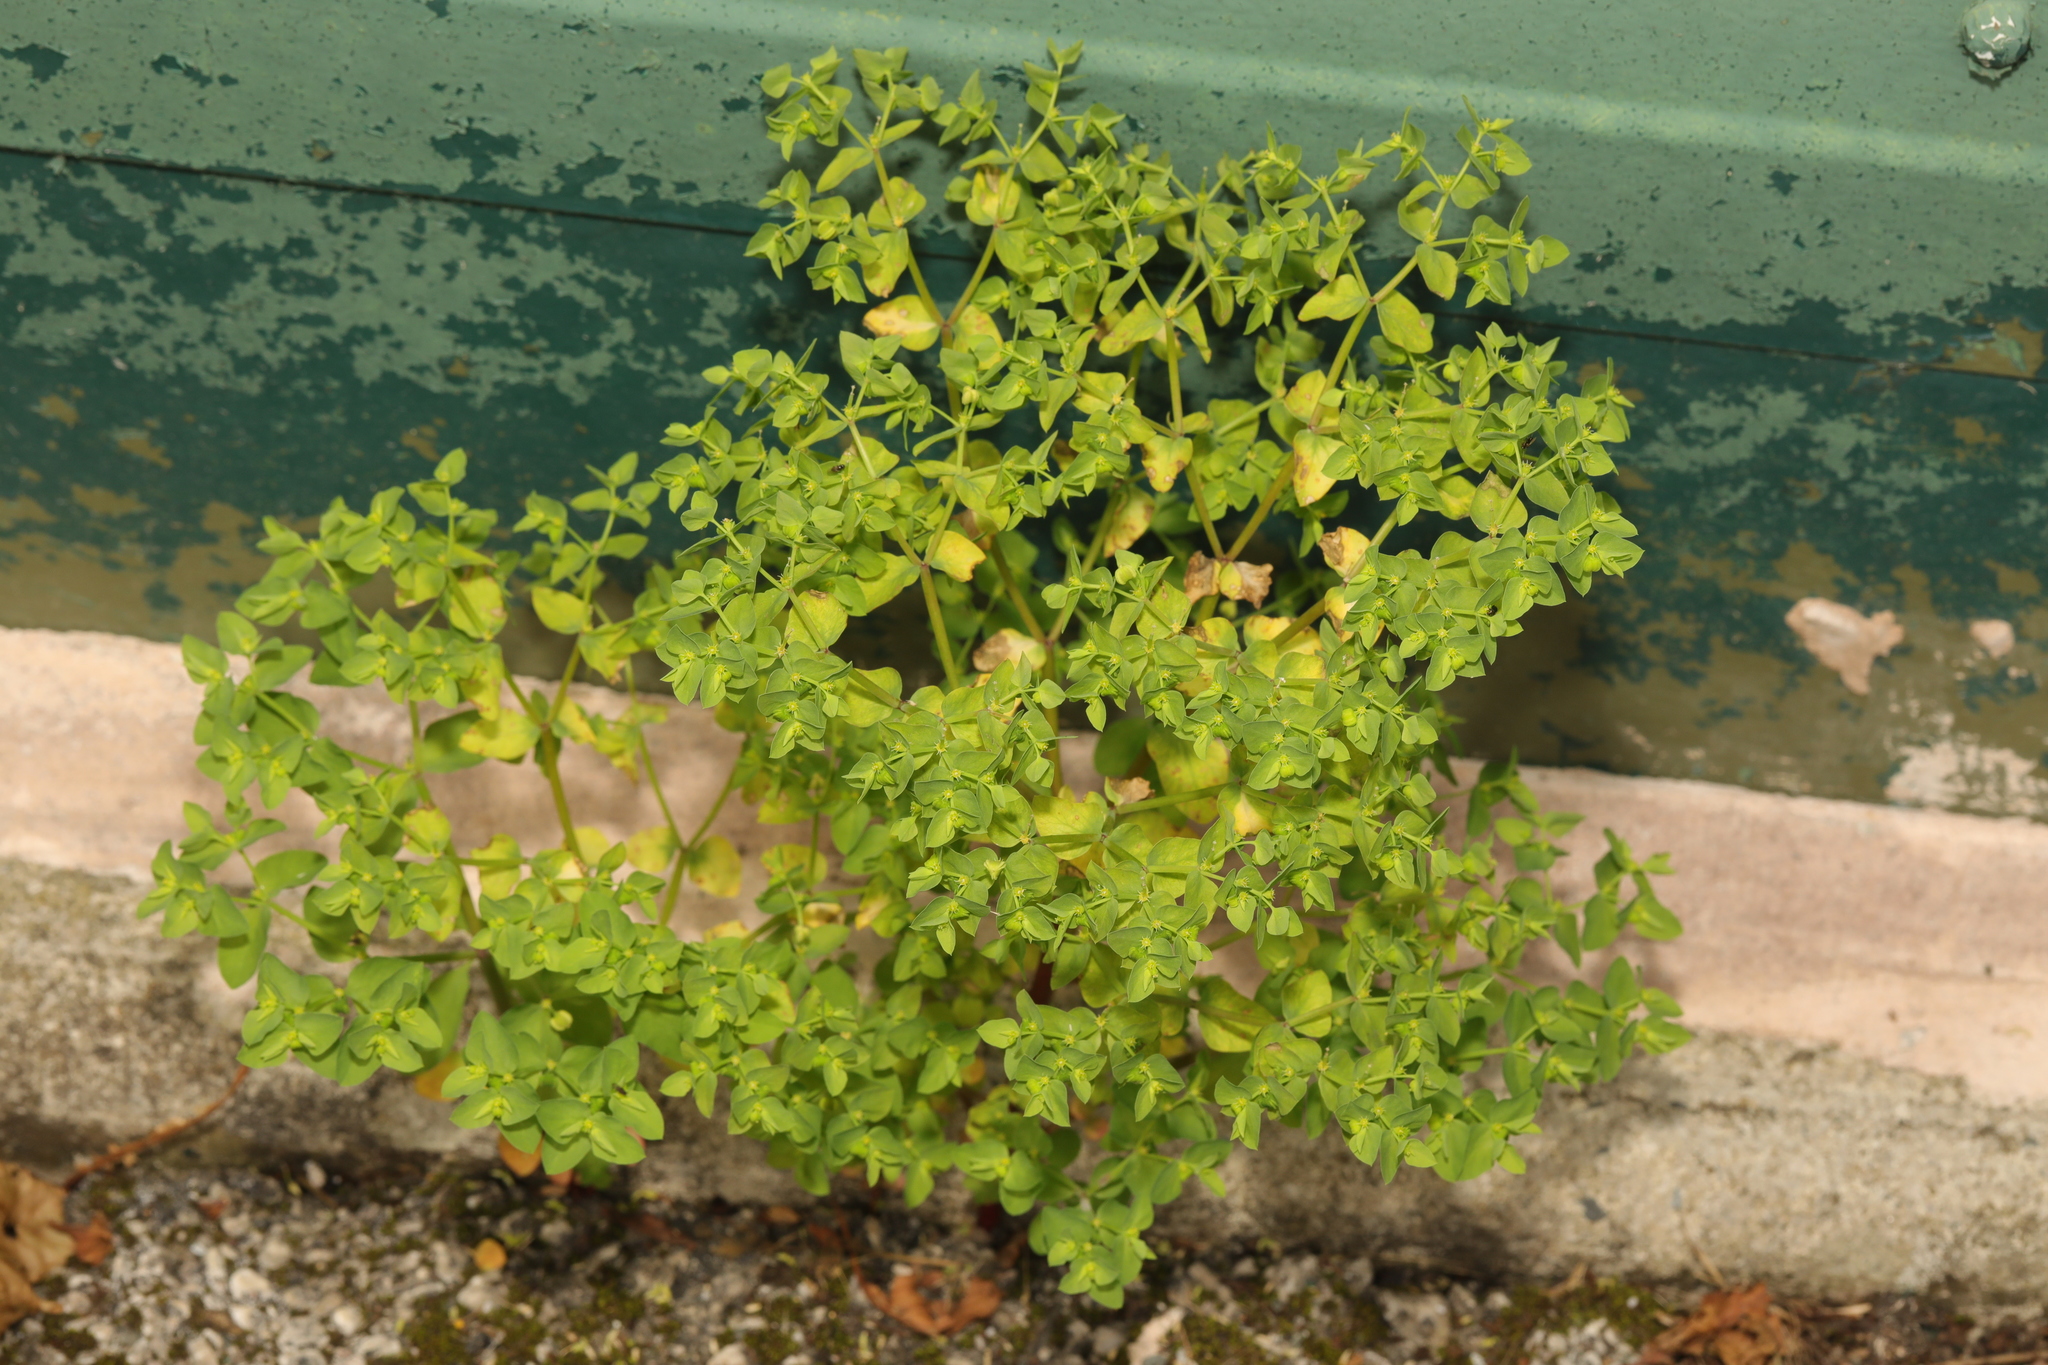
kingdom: Plantae
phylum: Tracheophyta
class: Magnoliopsida
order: Malpighiales
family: Euphorbiaceae
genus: Euphorbia
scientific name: Euphorbia peplus
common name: Petty spurge
